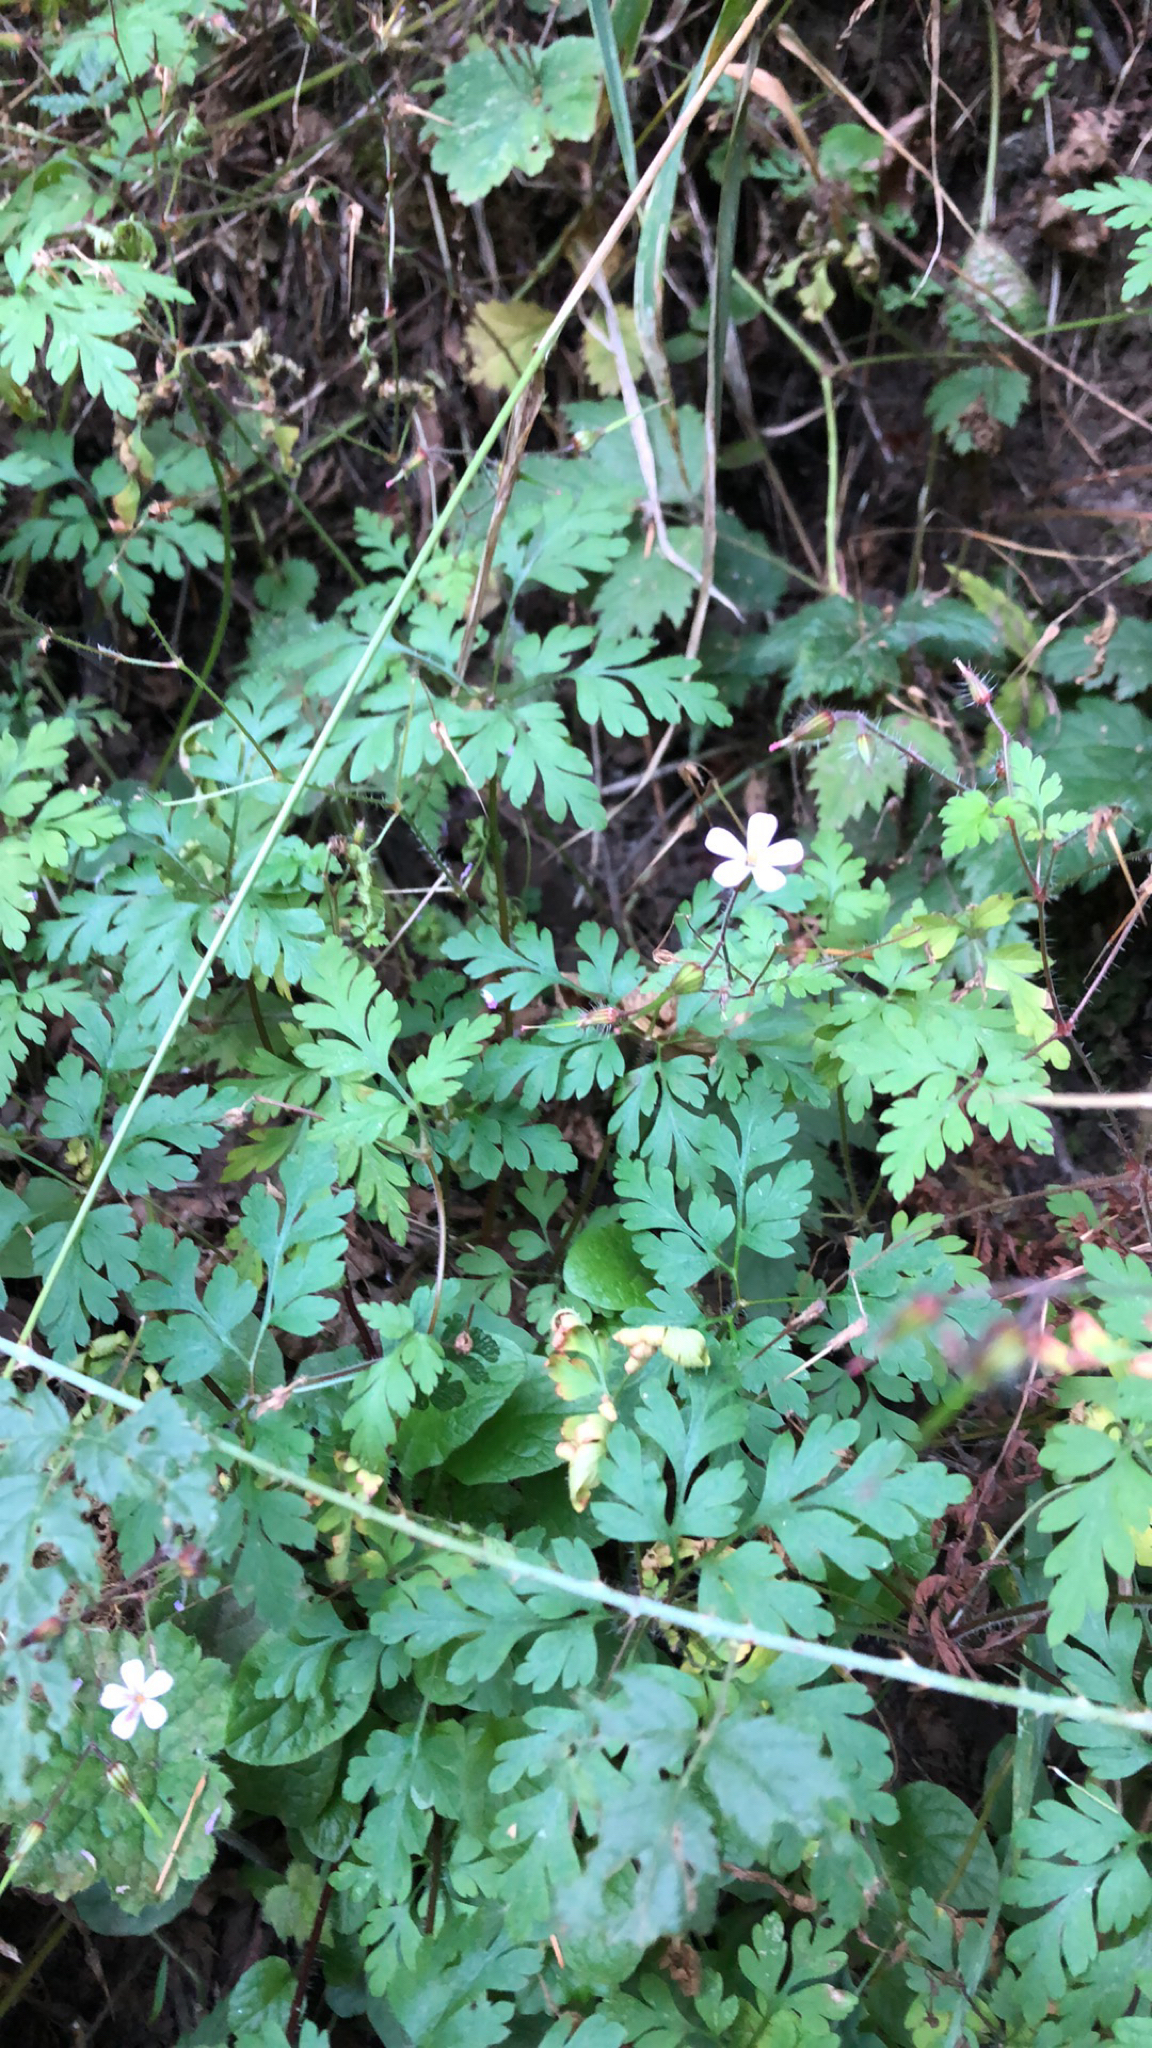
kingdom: Plantae
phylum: Tracheophyta
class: Magnoliopsida
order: Geraniales
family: Geraniaceae
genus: Geranium
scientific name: Geranium robertianum
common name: Herb-robert
